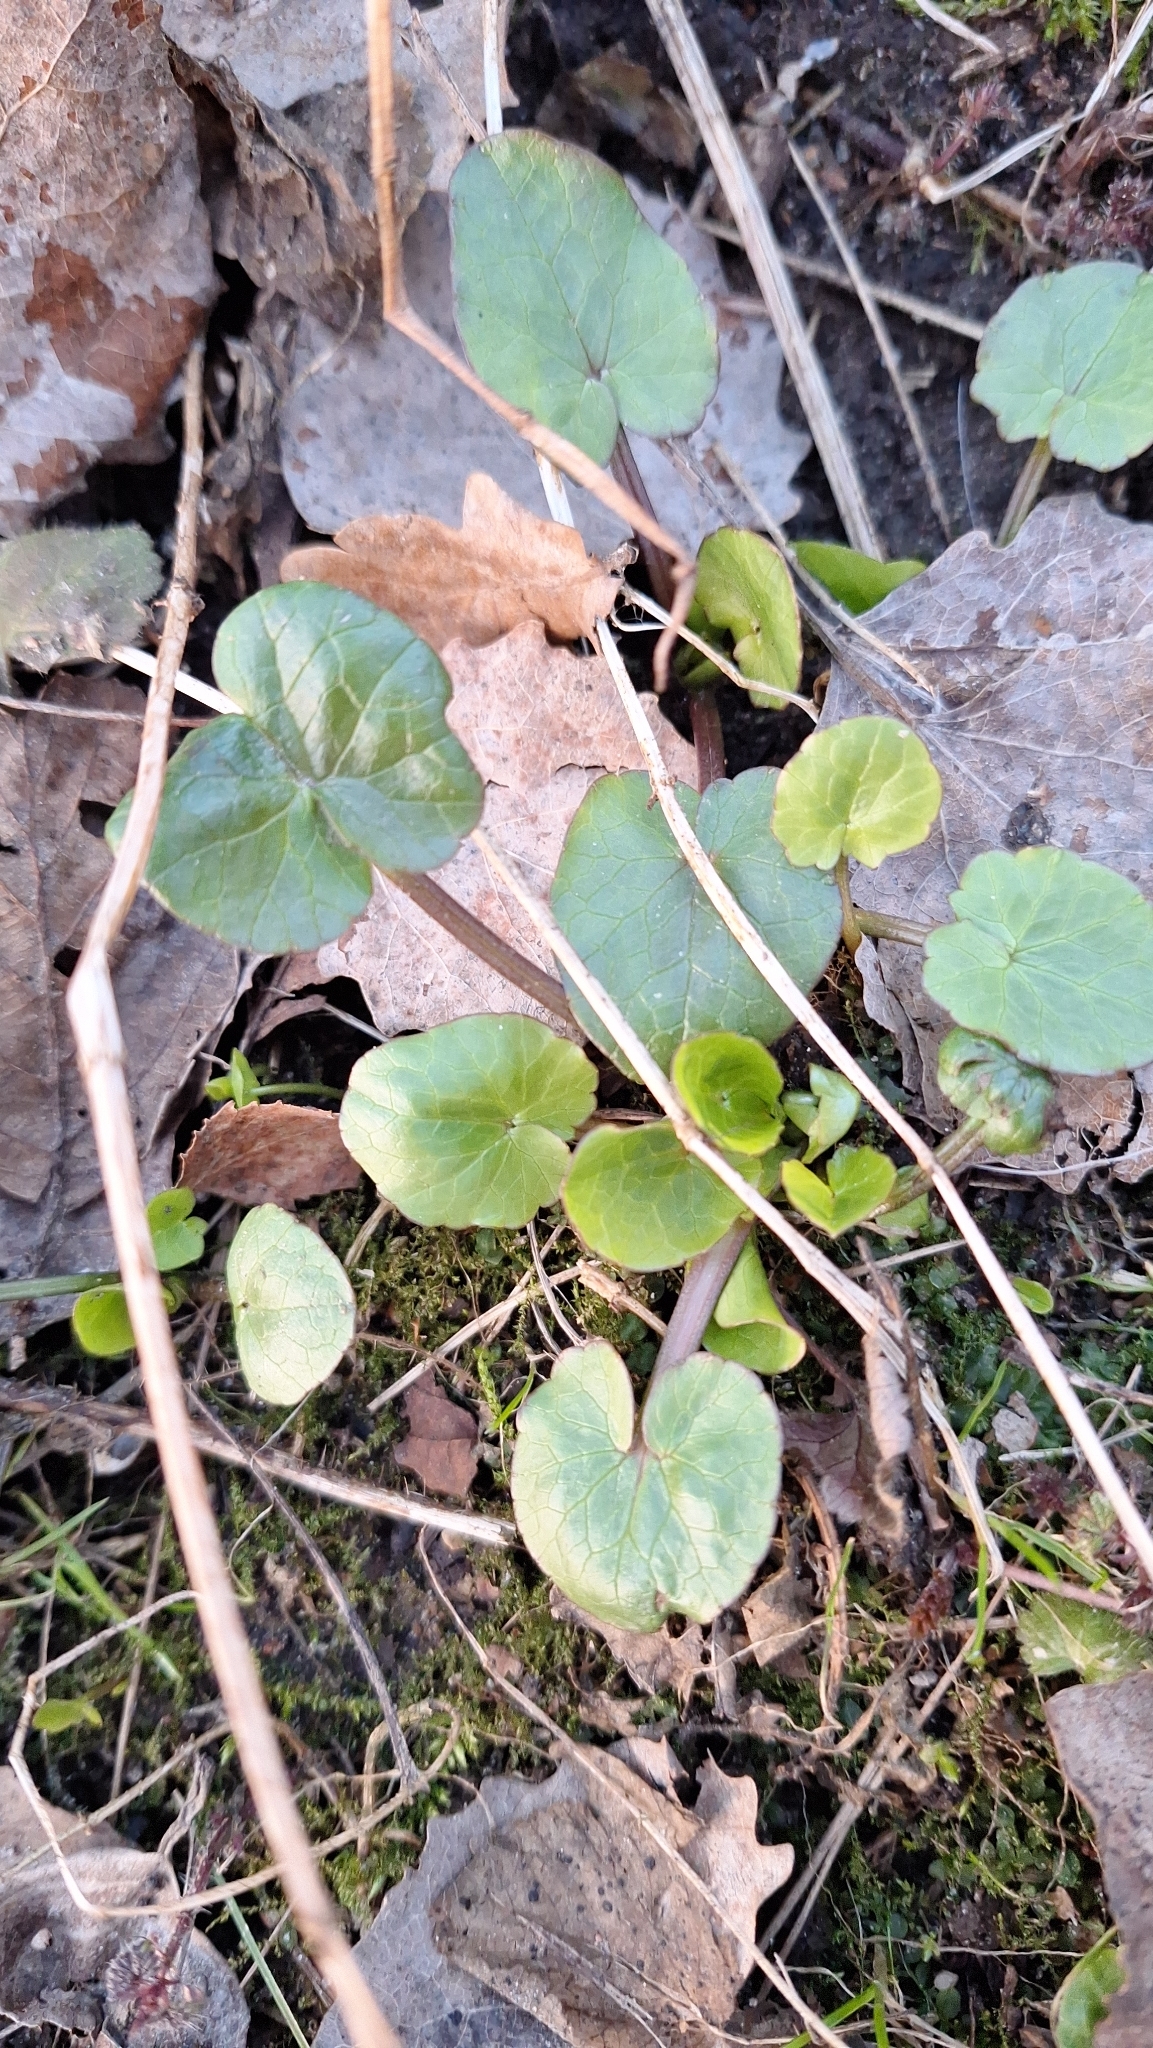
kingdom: Plantae
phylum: Tracheophyta
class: Magnoliopsida
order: Ranunculales
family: Ranunculaceae
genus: Ficaria
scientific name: Ficaria verna
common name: Lesser celandine
